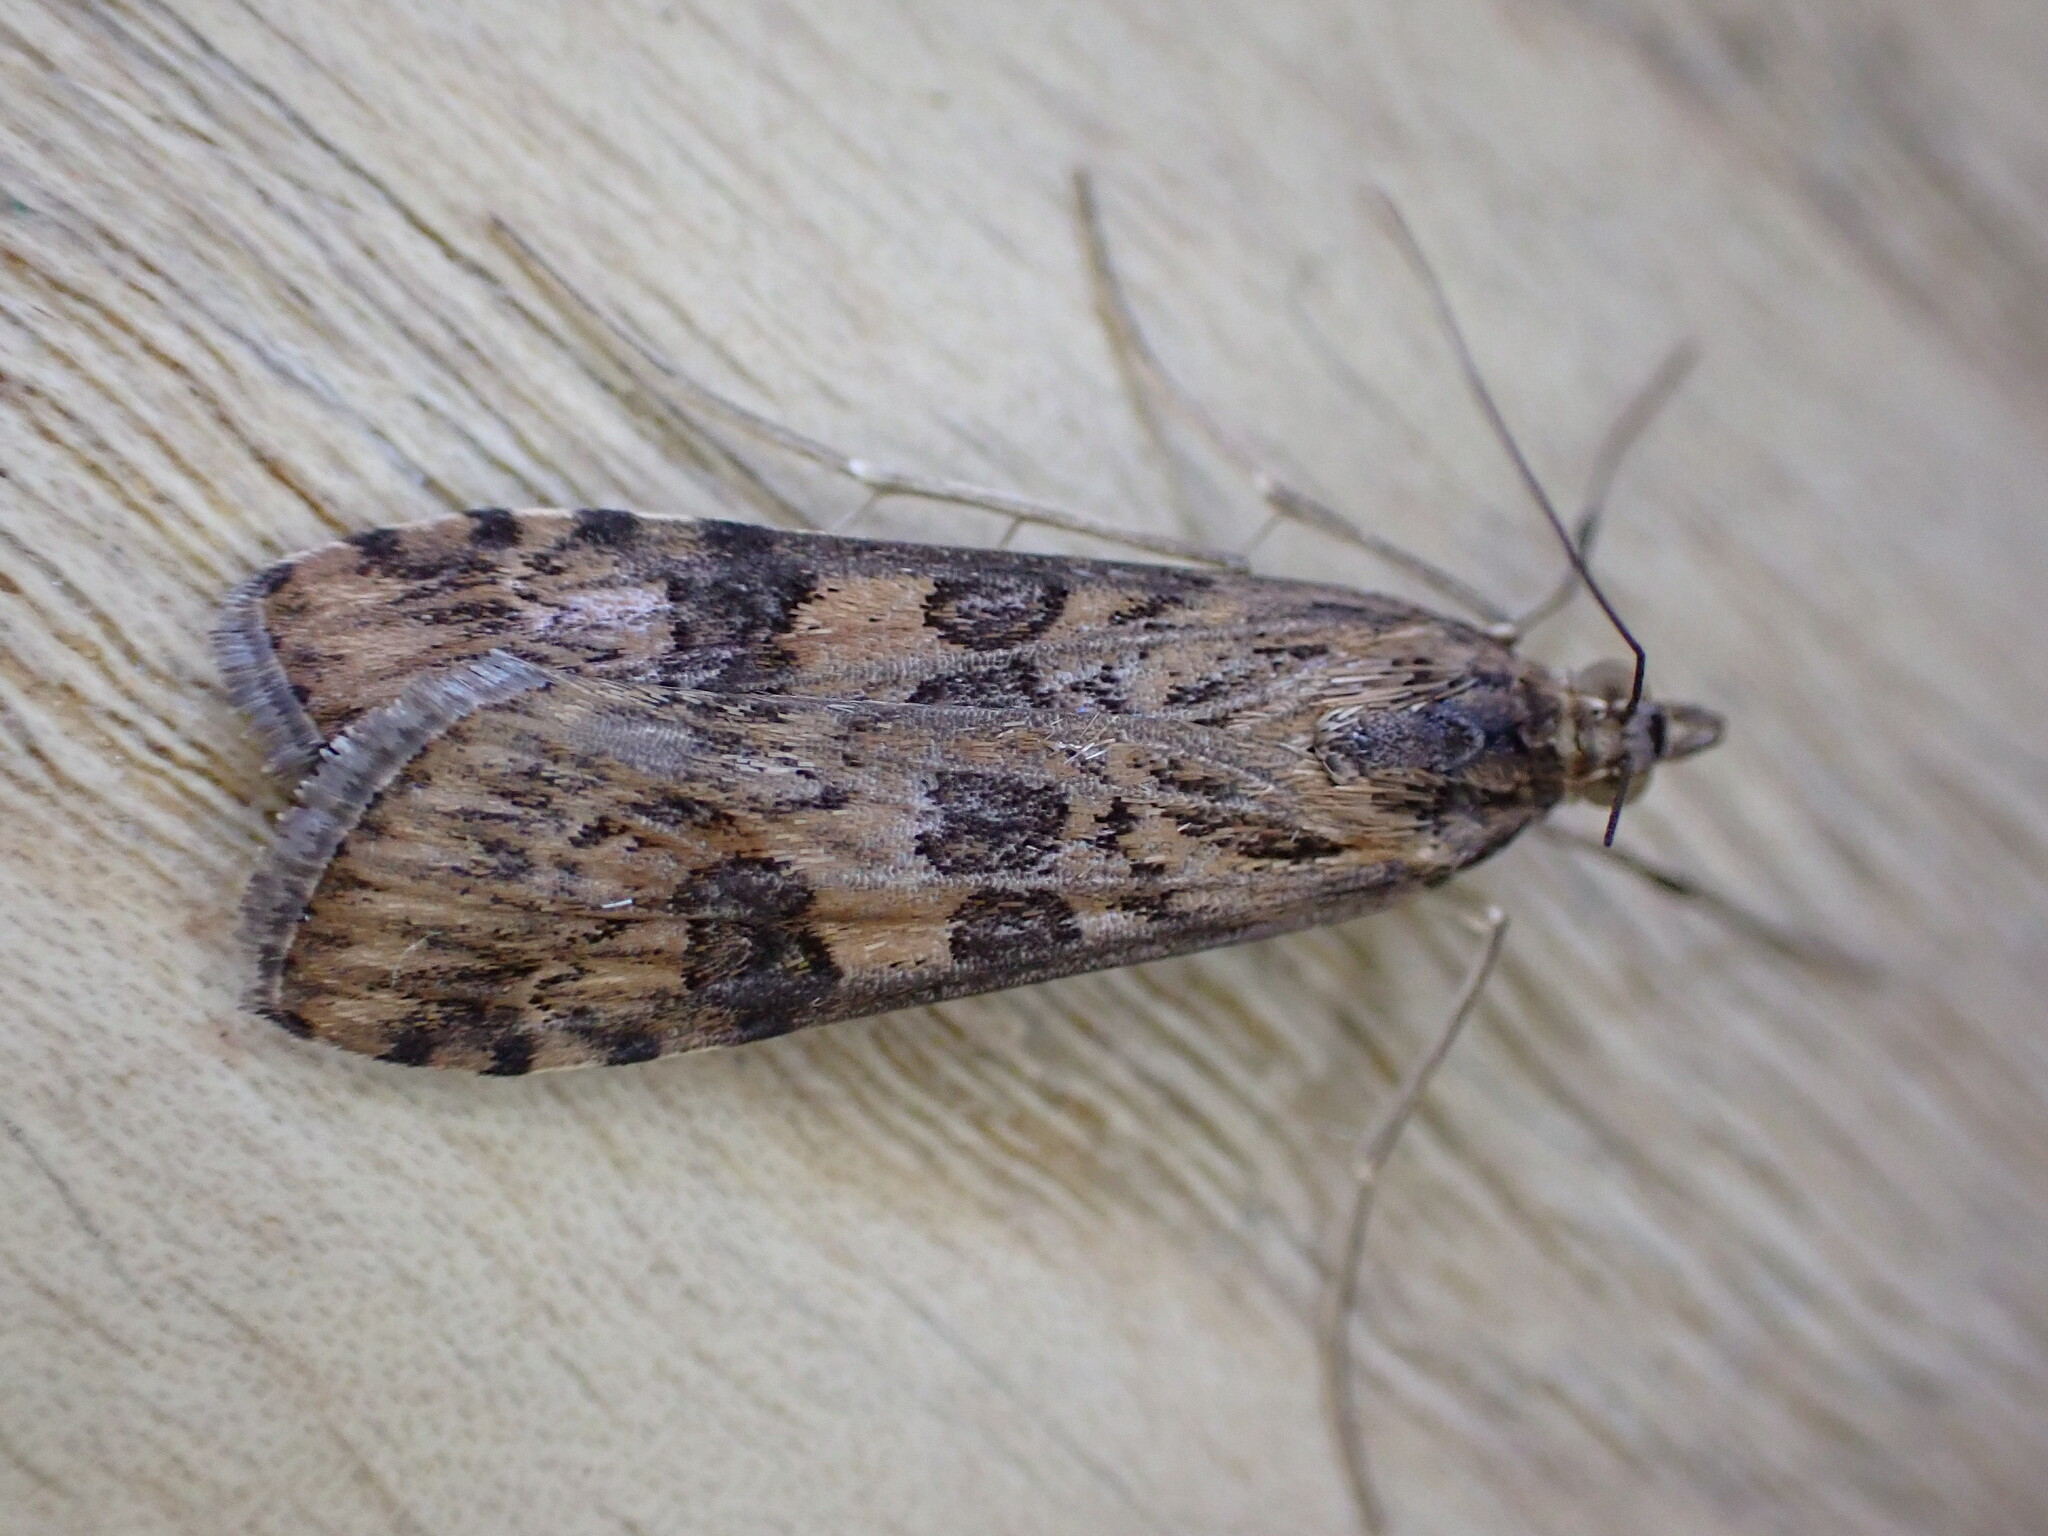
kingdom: Animalia
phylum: Arthropoda
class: Insecta
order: Lepidoptera
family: Crambidae
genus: Nomophila
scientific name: Nomophila noctuella
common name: Rush veneer
